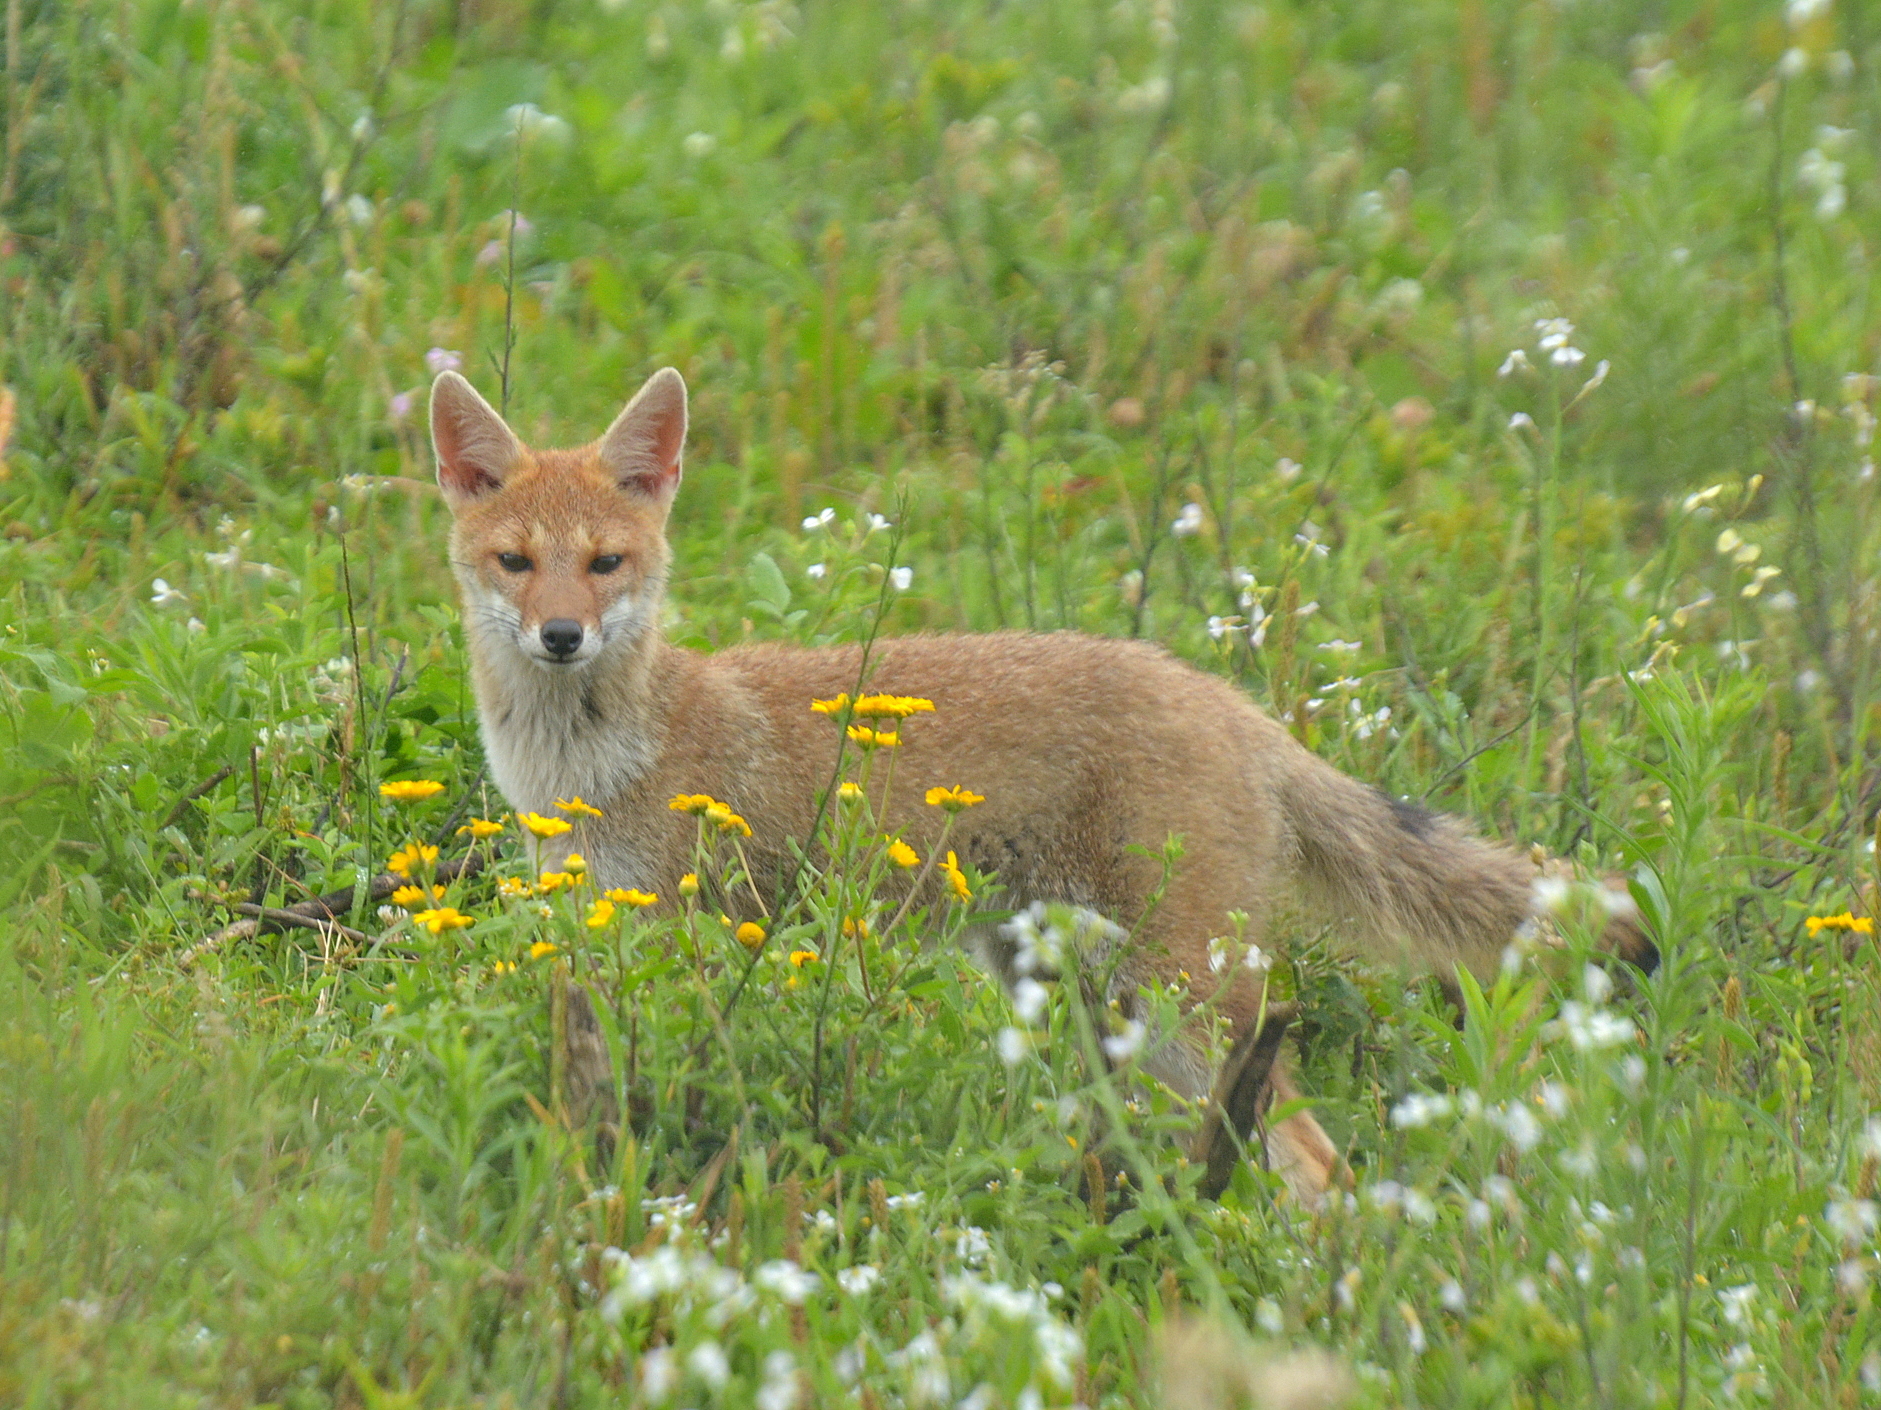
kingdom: Animalia
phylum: Chordata
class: Mammalia
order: Carnivora
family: Canidae
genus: Lycalopex
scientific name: Lycalopex gymnocercus
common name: Pampas fox
